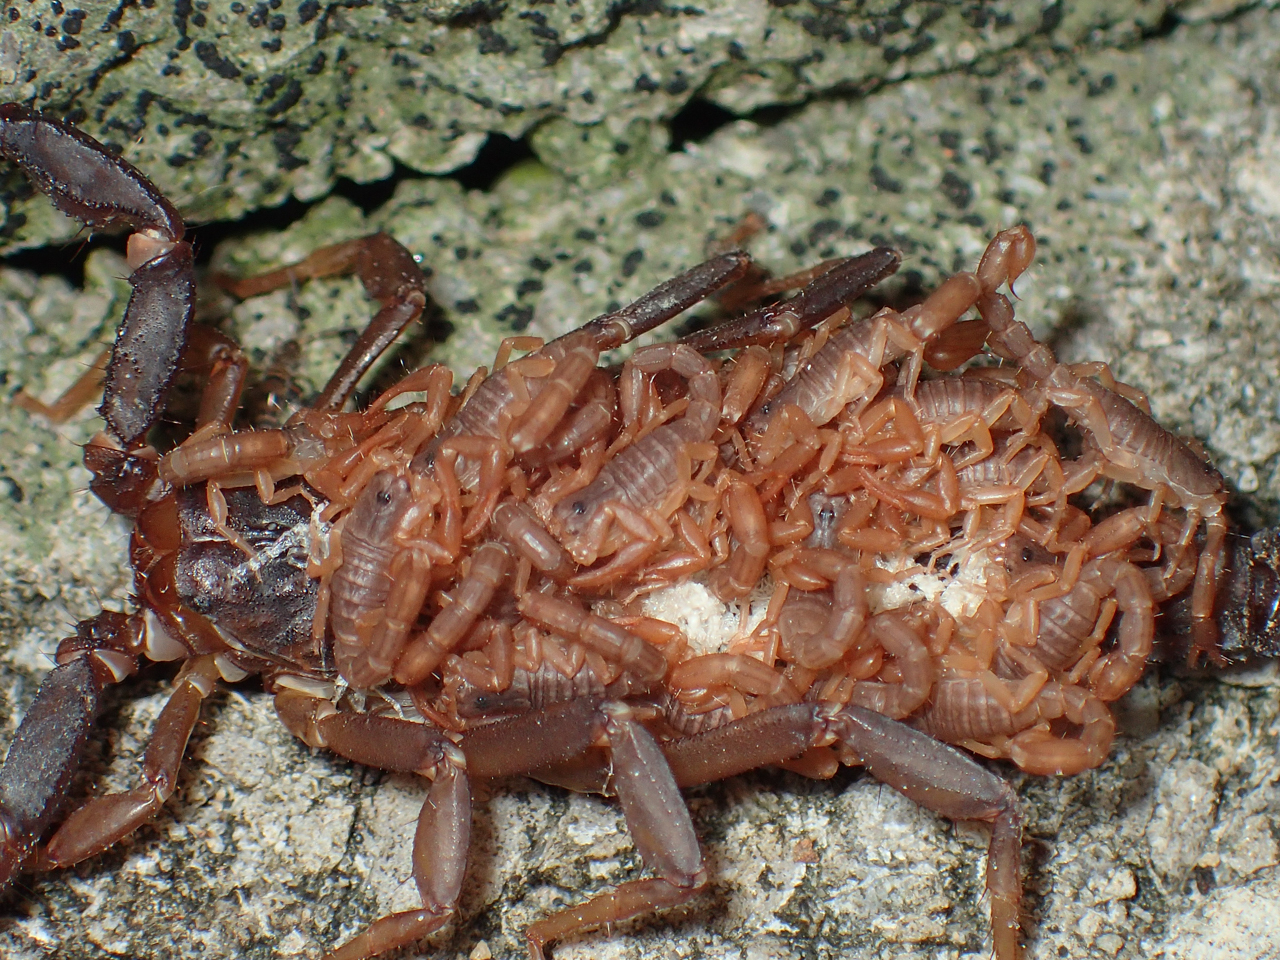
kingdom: Animalia
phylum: Arthropoda
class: Arachnida
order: Scorpiones
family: Vaejovidae
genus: Vaejovis
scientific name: Vaejovis carolinianus
